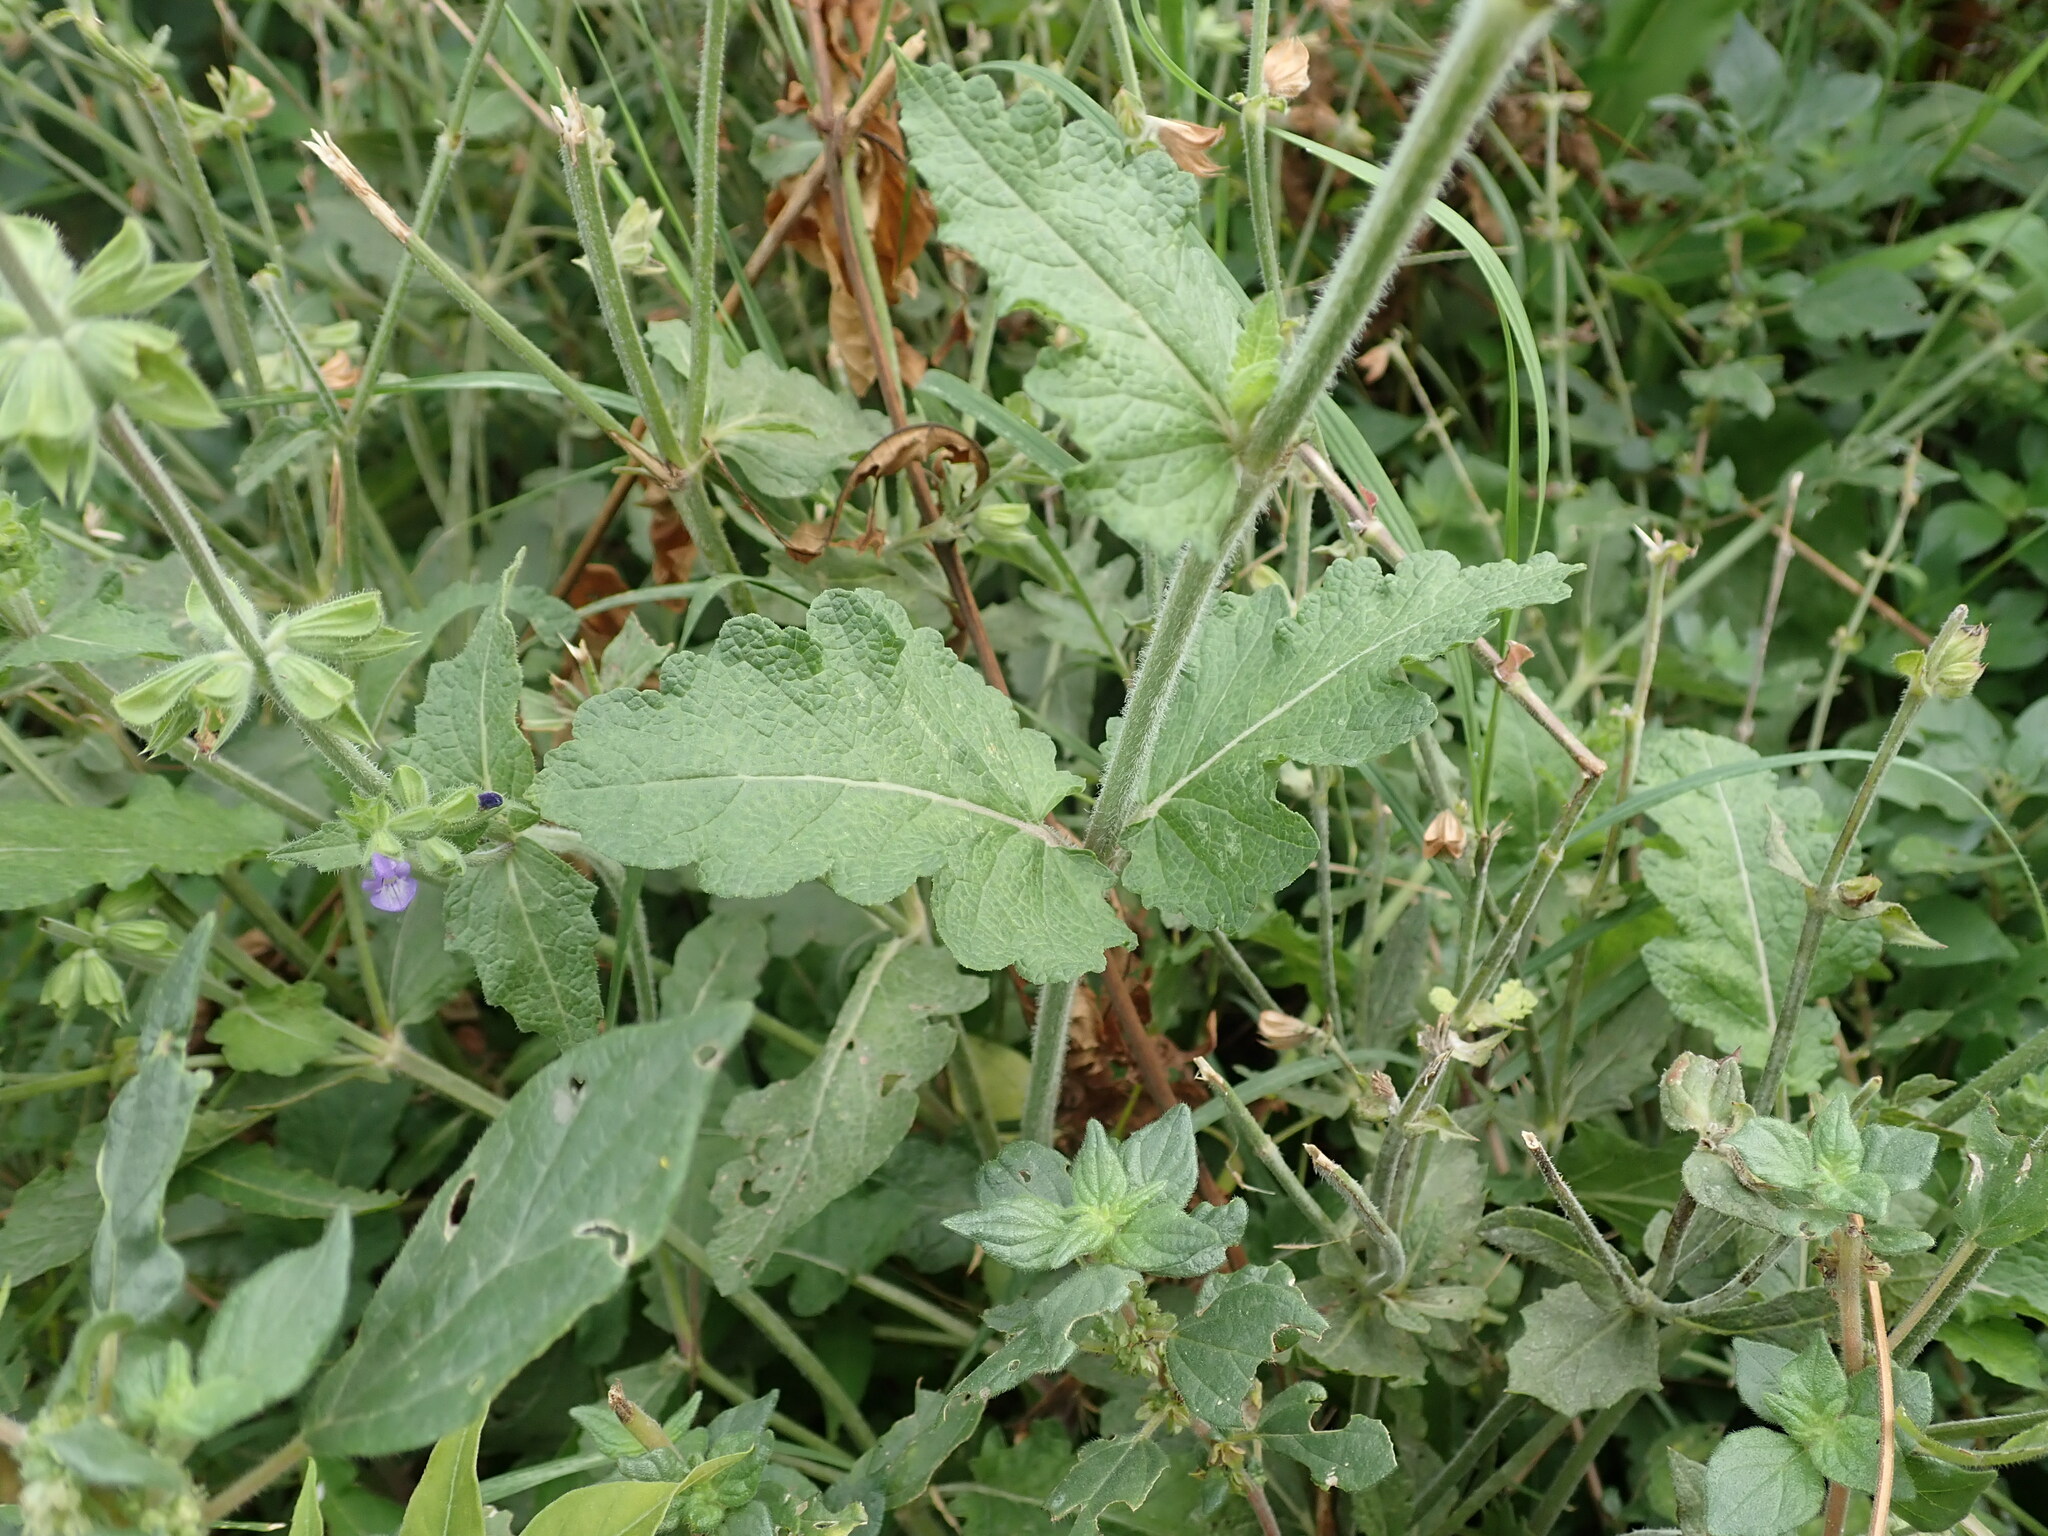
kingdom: Plantae
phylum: Tracheophyta
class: Magnoliopsida
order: Lamiales
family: Lamiaceae
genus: Salvia
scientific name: Salvia verbenaca
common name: Wild clary
